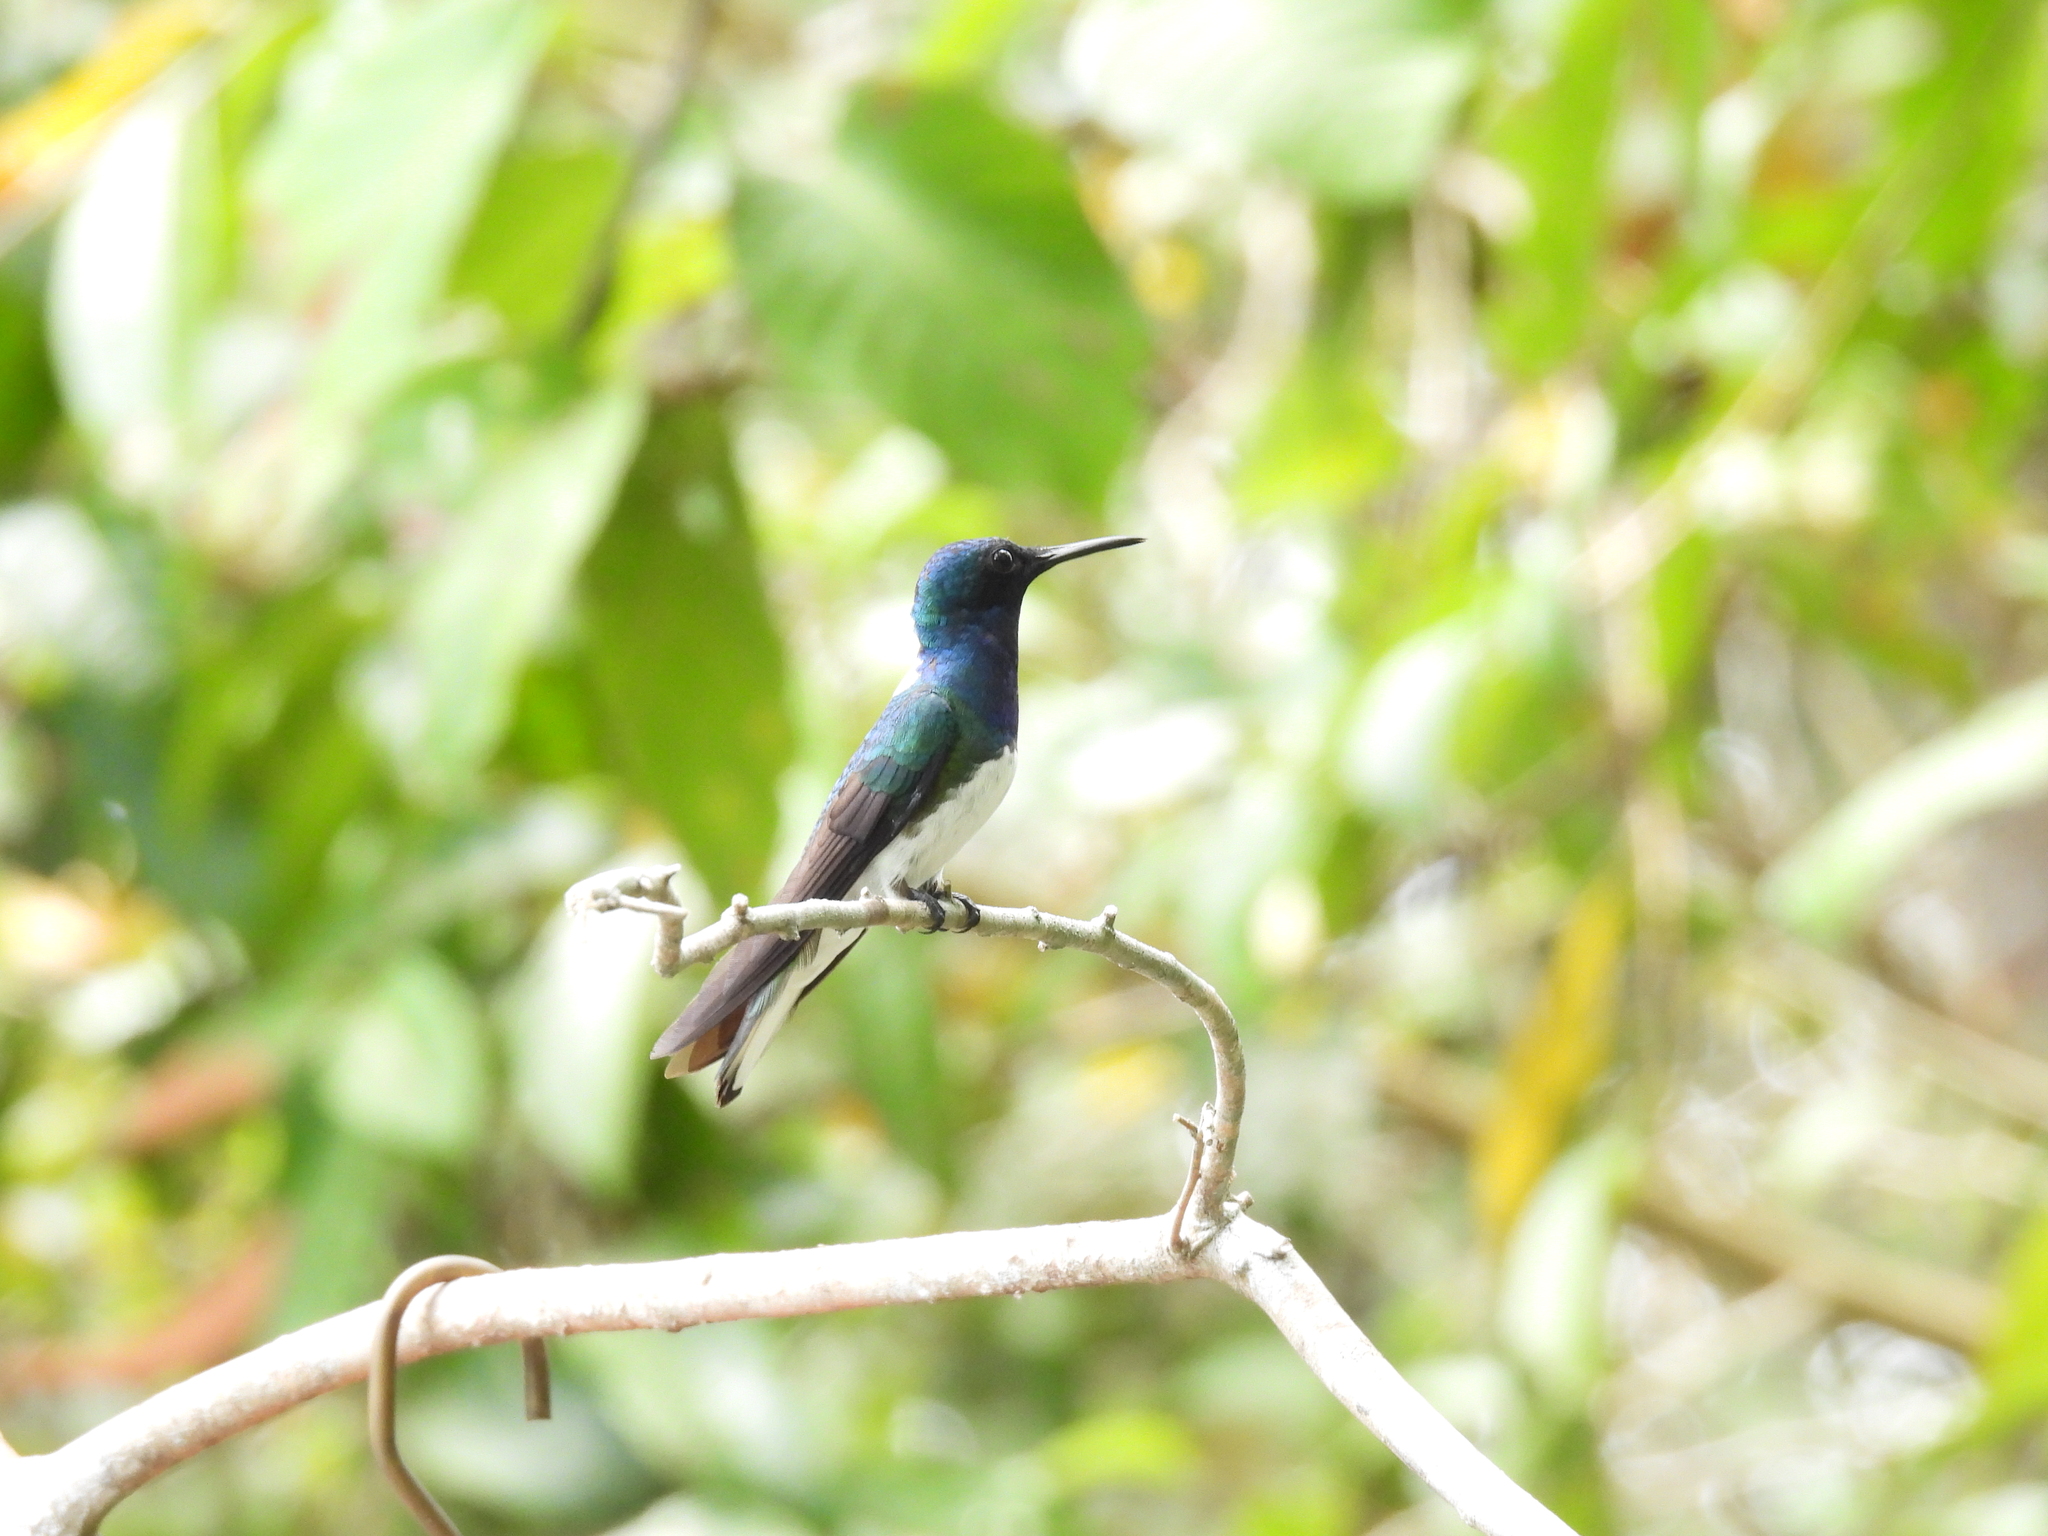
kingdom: Animalia
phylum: Chordata
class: Aves
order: Apodiformes
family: Trochilidae
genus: Florisuga
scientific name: Florisuga mellivora
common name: White-necked jacobin
